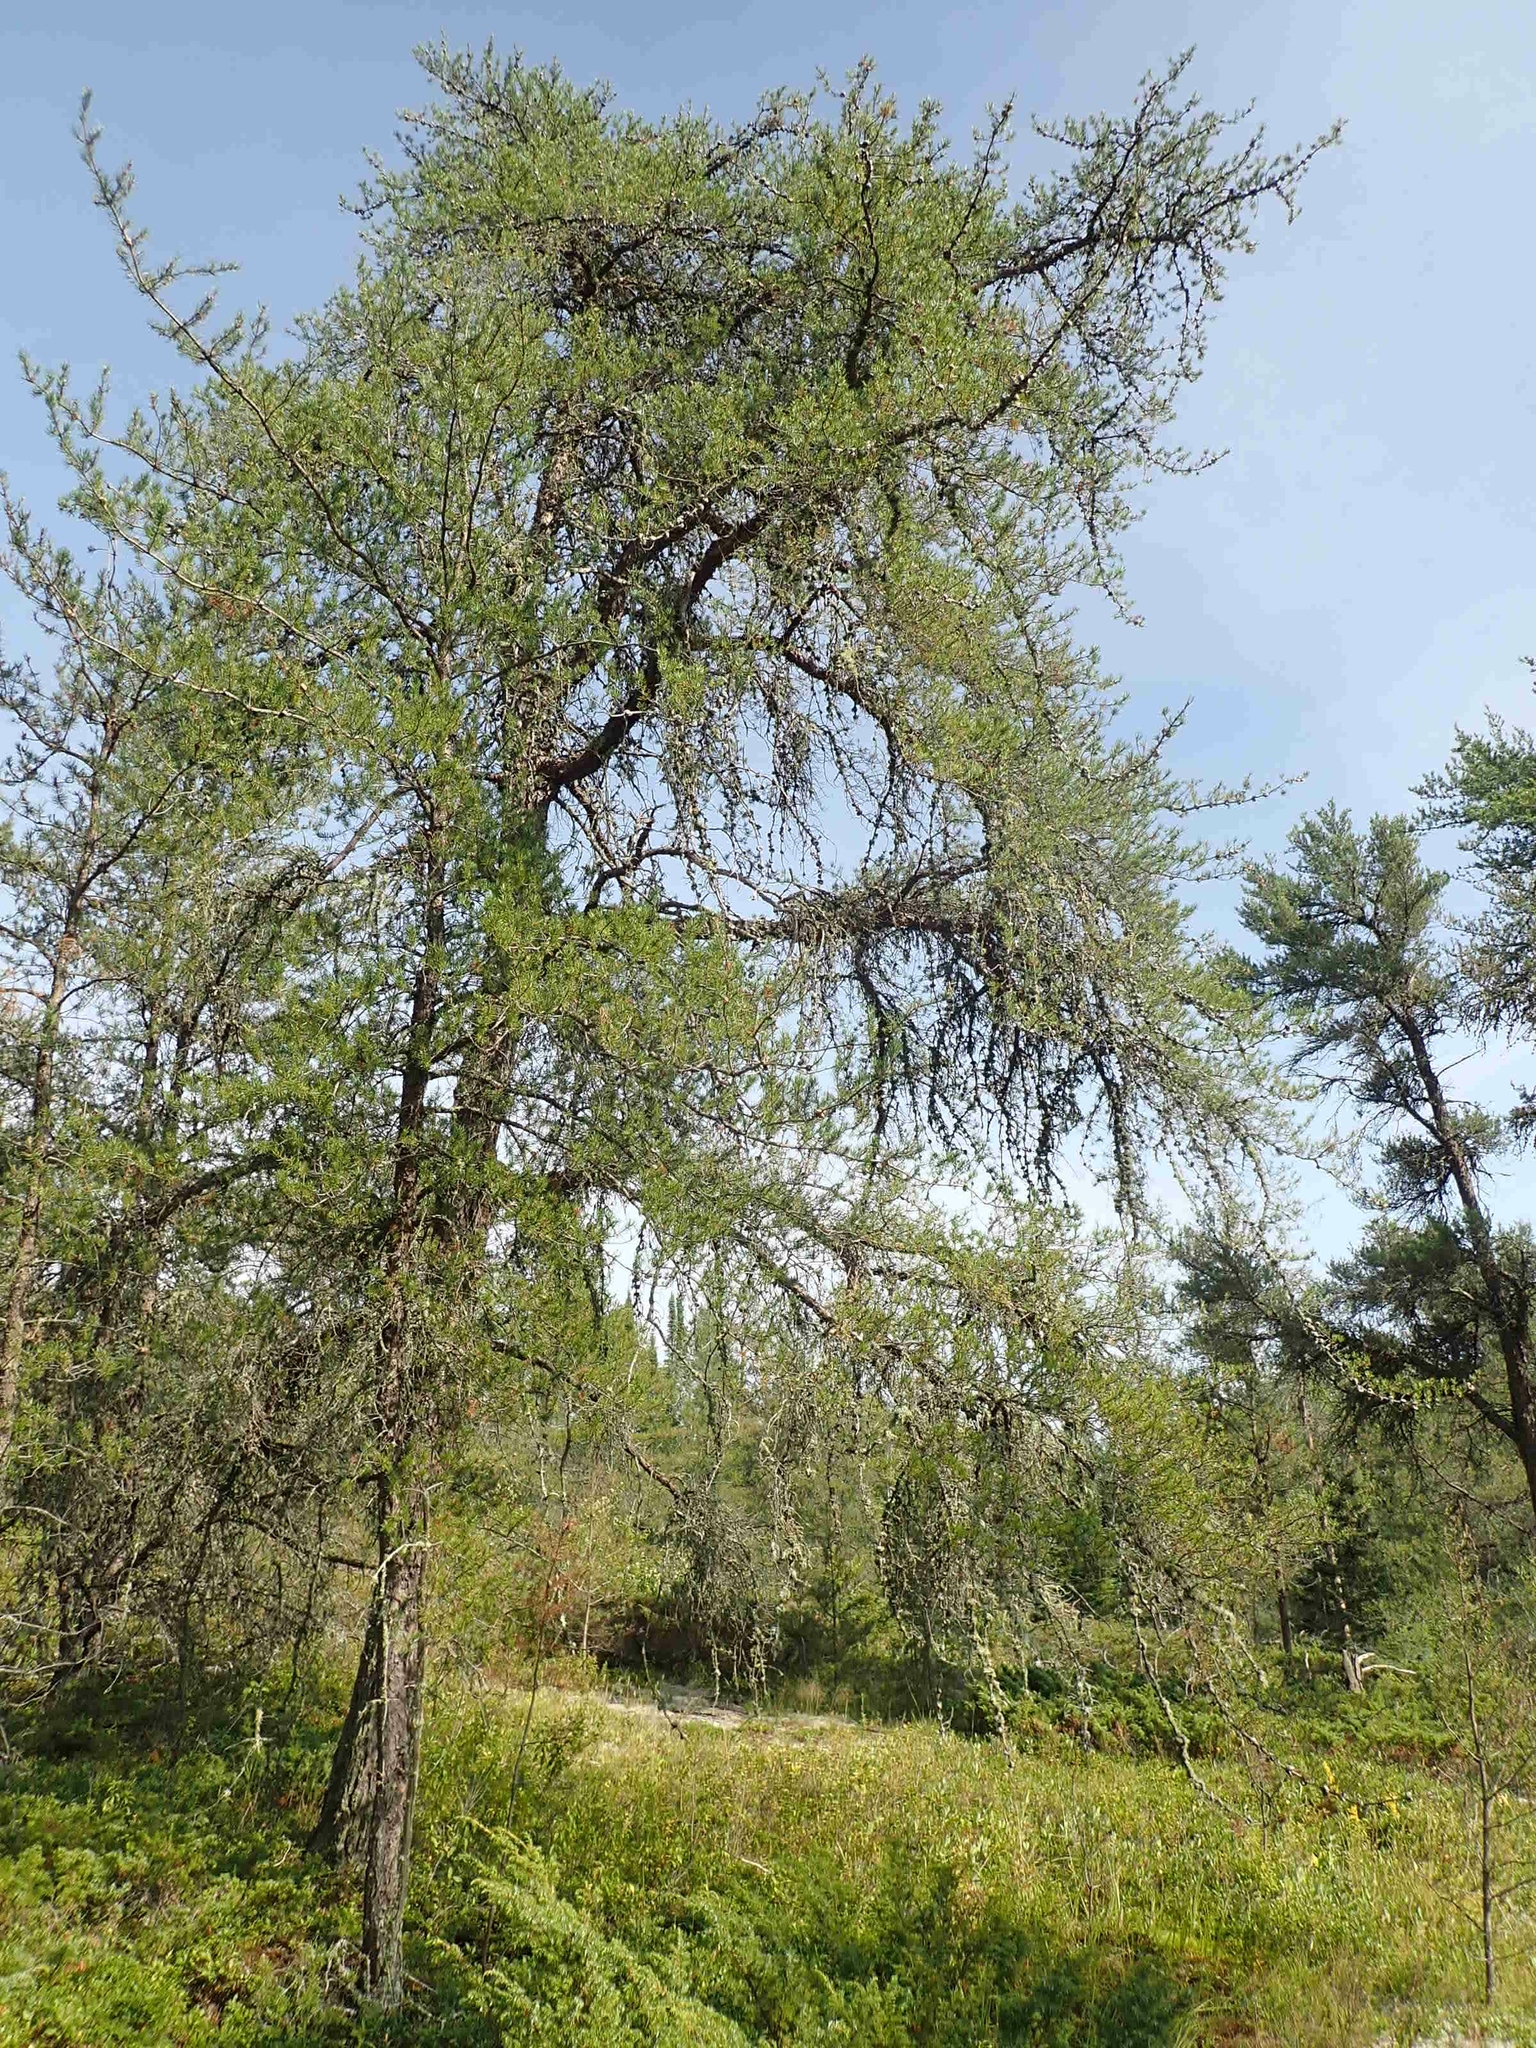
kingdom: Plantae
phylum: Tracheophyta
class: Pinopsida
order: Pinales
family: Pinaceae
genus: Pinus
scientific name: Pinus banksiana
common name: Jack pine
